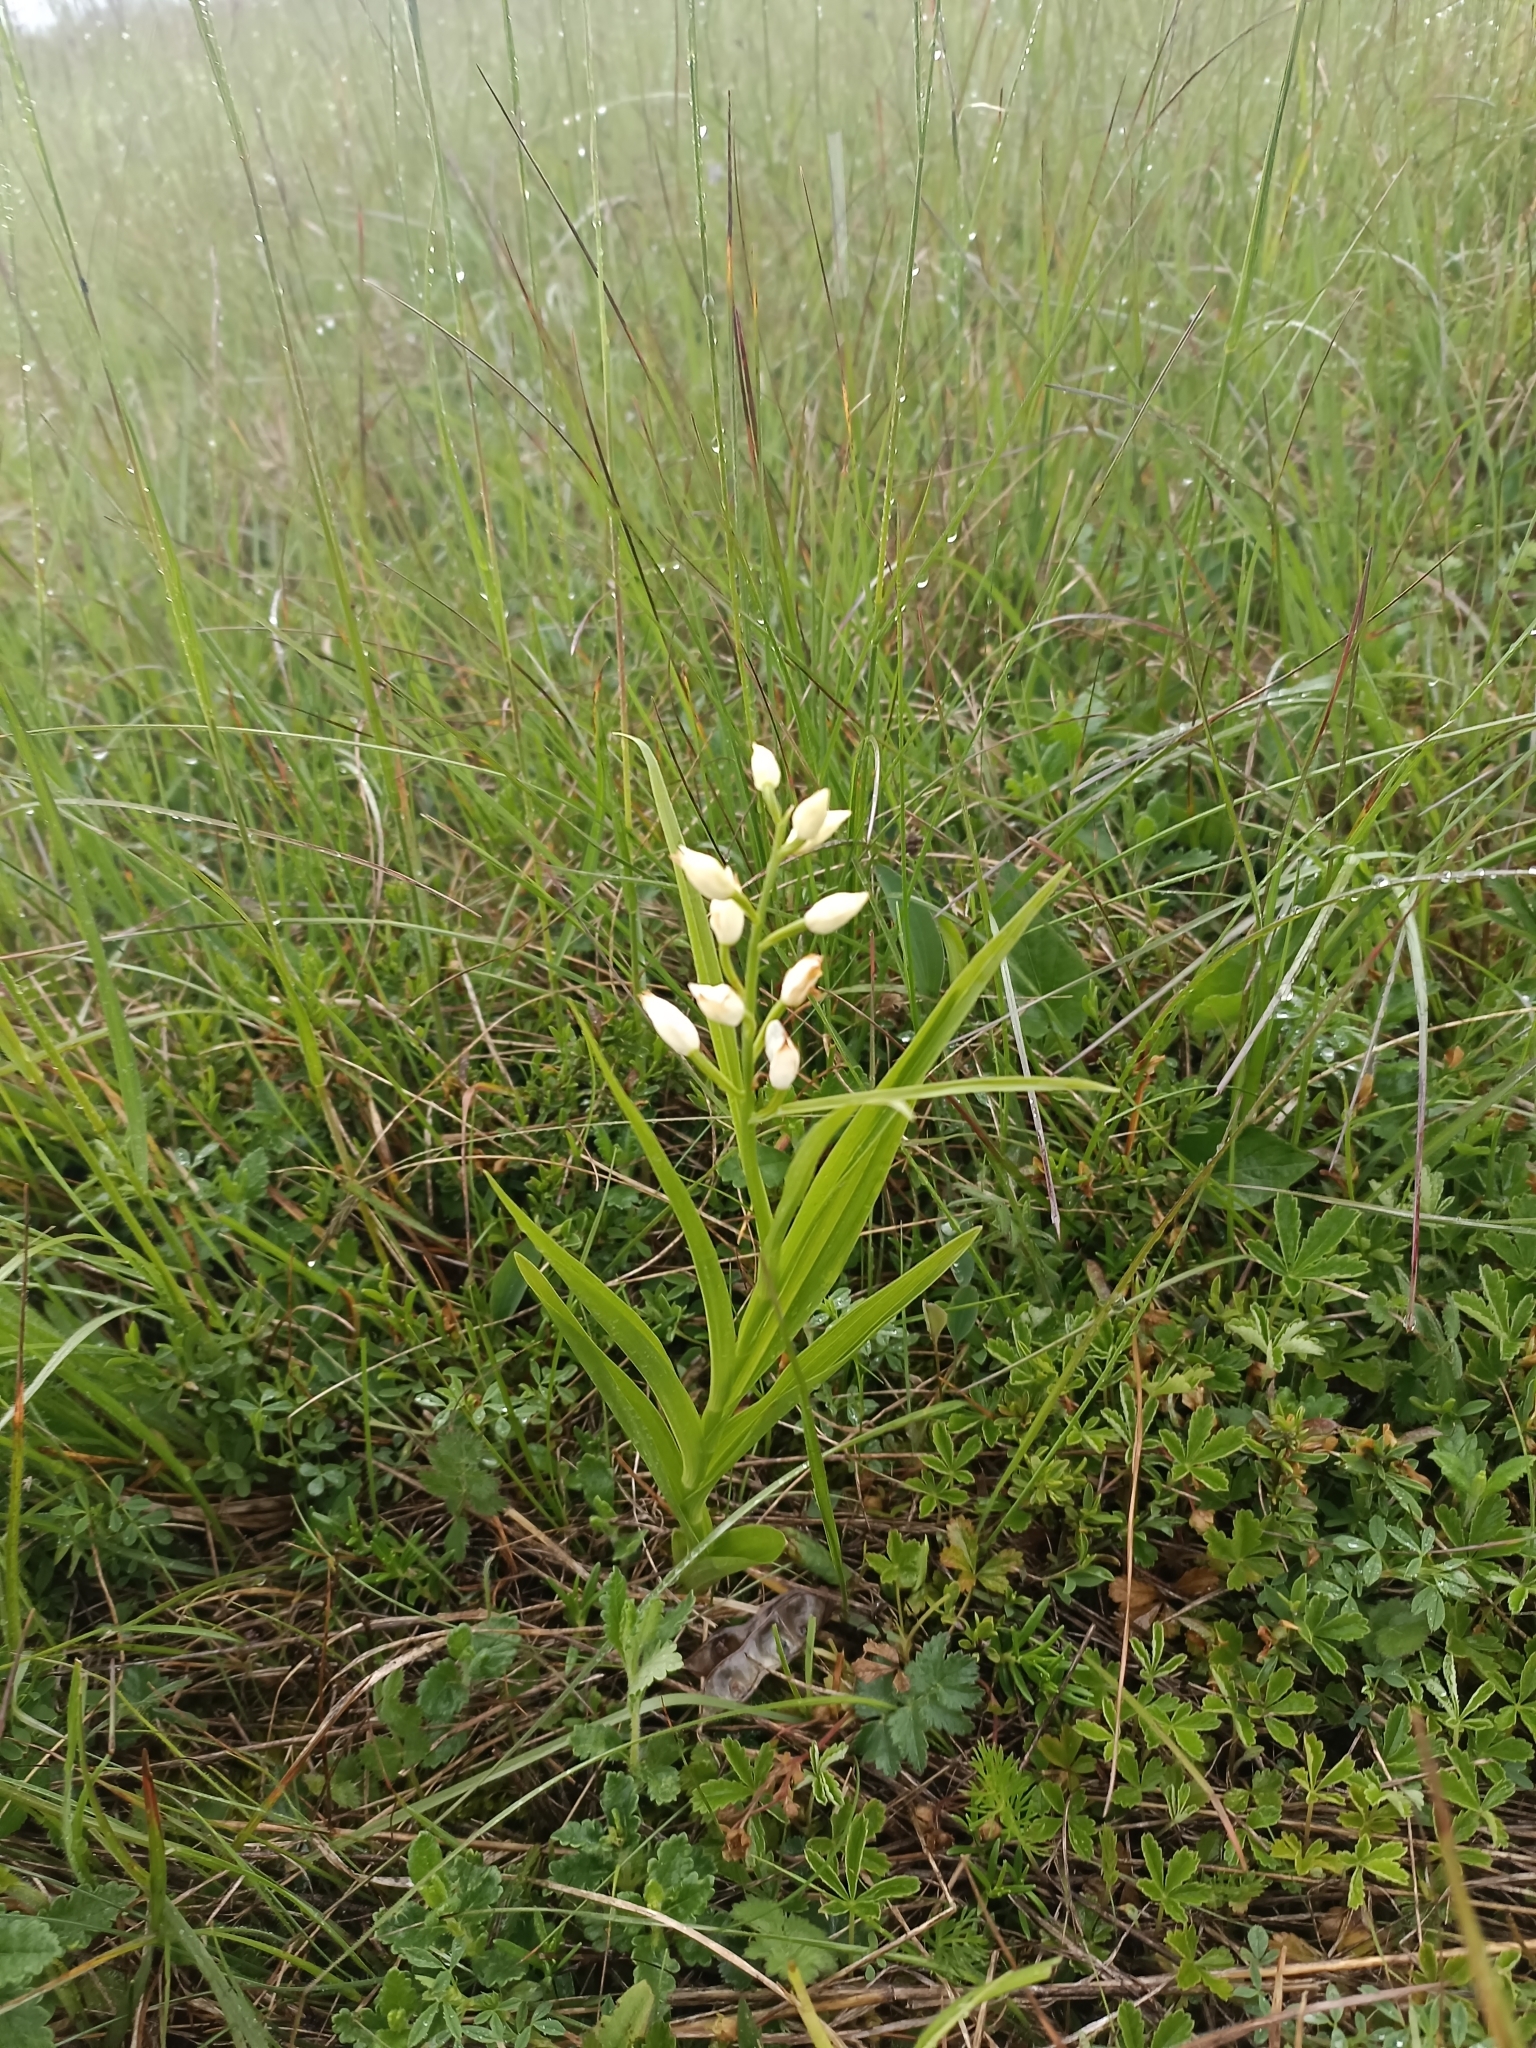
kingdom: Plantae
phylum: Tracheophyta
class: Liliopsida
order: Asparagales
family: Orchidaceae
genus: Cephalanthera
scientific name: Cephalanthera longifolia
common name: Narrow-leaved helleborine
